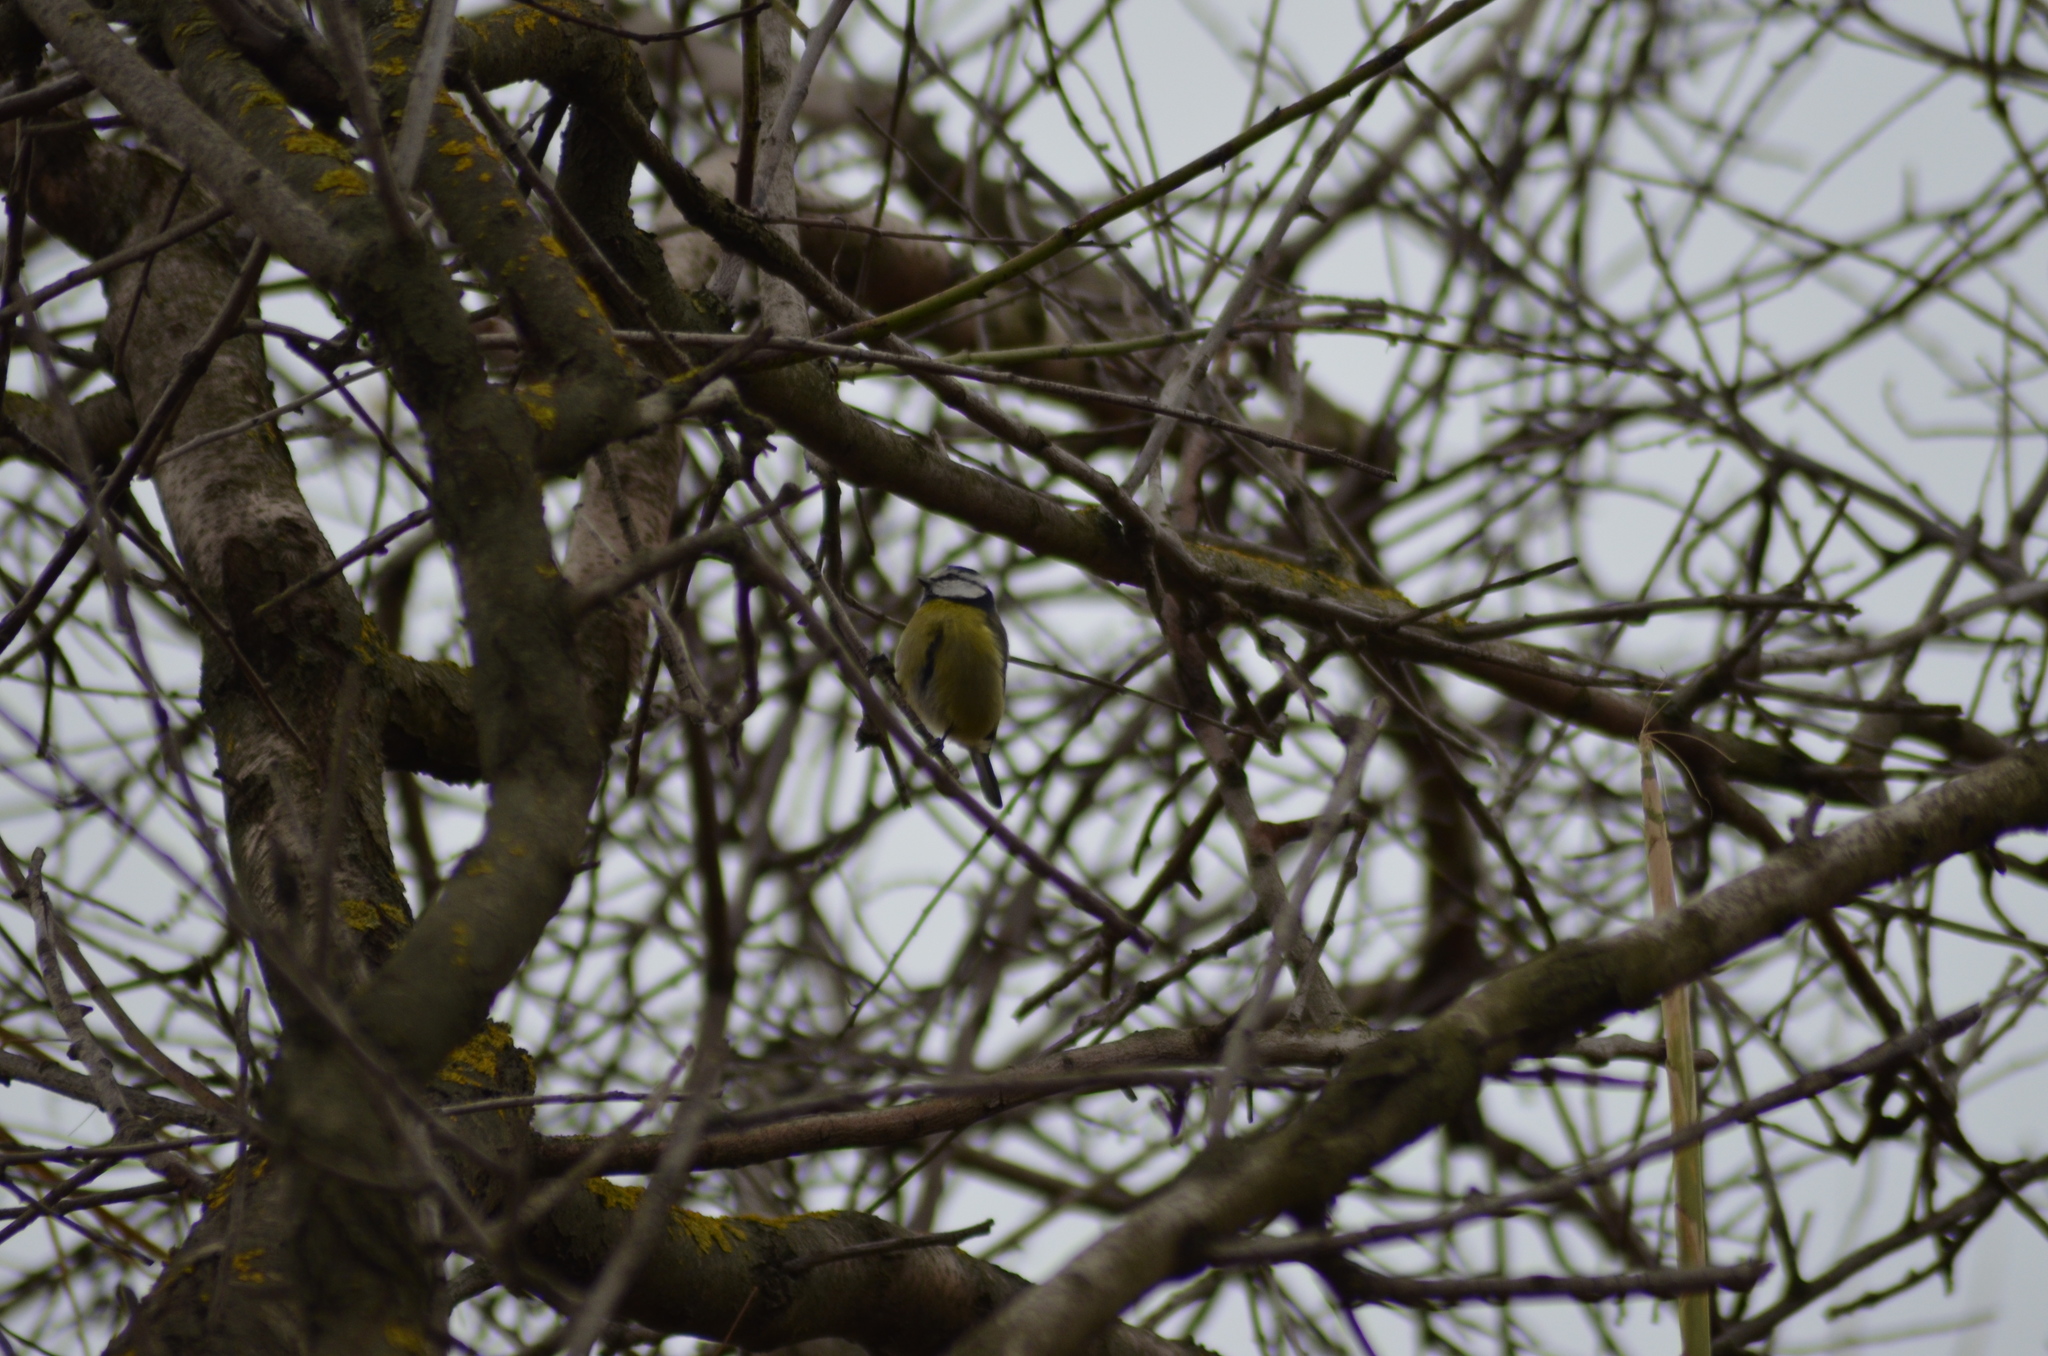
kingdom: Animalia
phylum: Chordata
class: Aves
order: Passeriformes
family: Paridae
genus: Cyanistes
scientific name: Cyanistes caeruleus
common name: Eurasian blue tit
